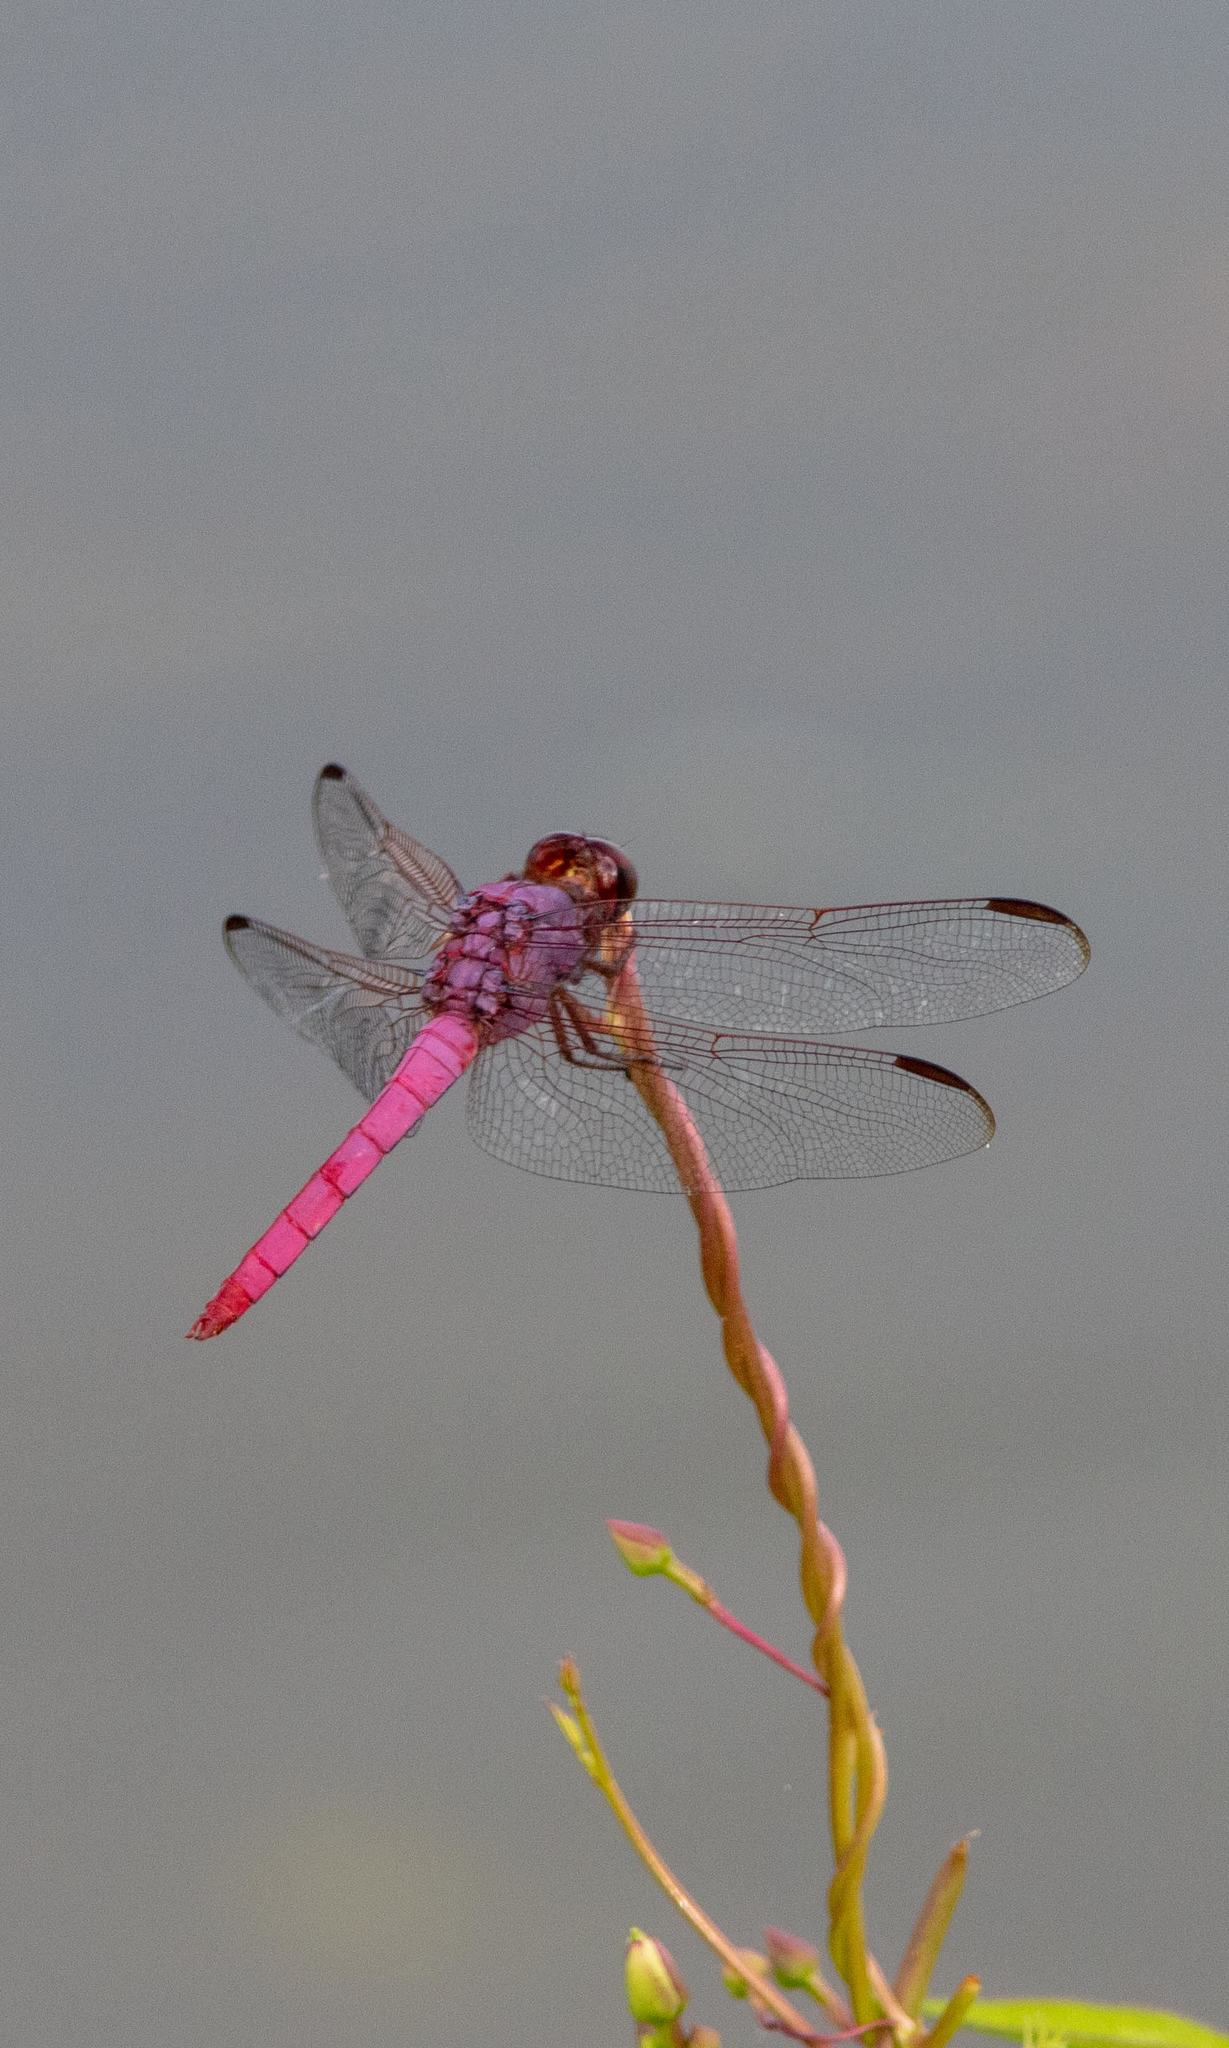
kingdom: Animalia
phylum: Arthropoda
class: Insecta
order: Odonata
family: Libellulidae
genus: Orthemis
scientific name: Orthemis ferruginea
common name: Roseate skimmer
